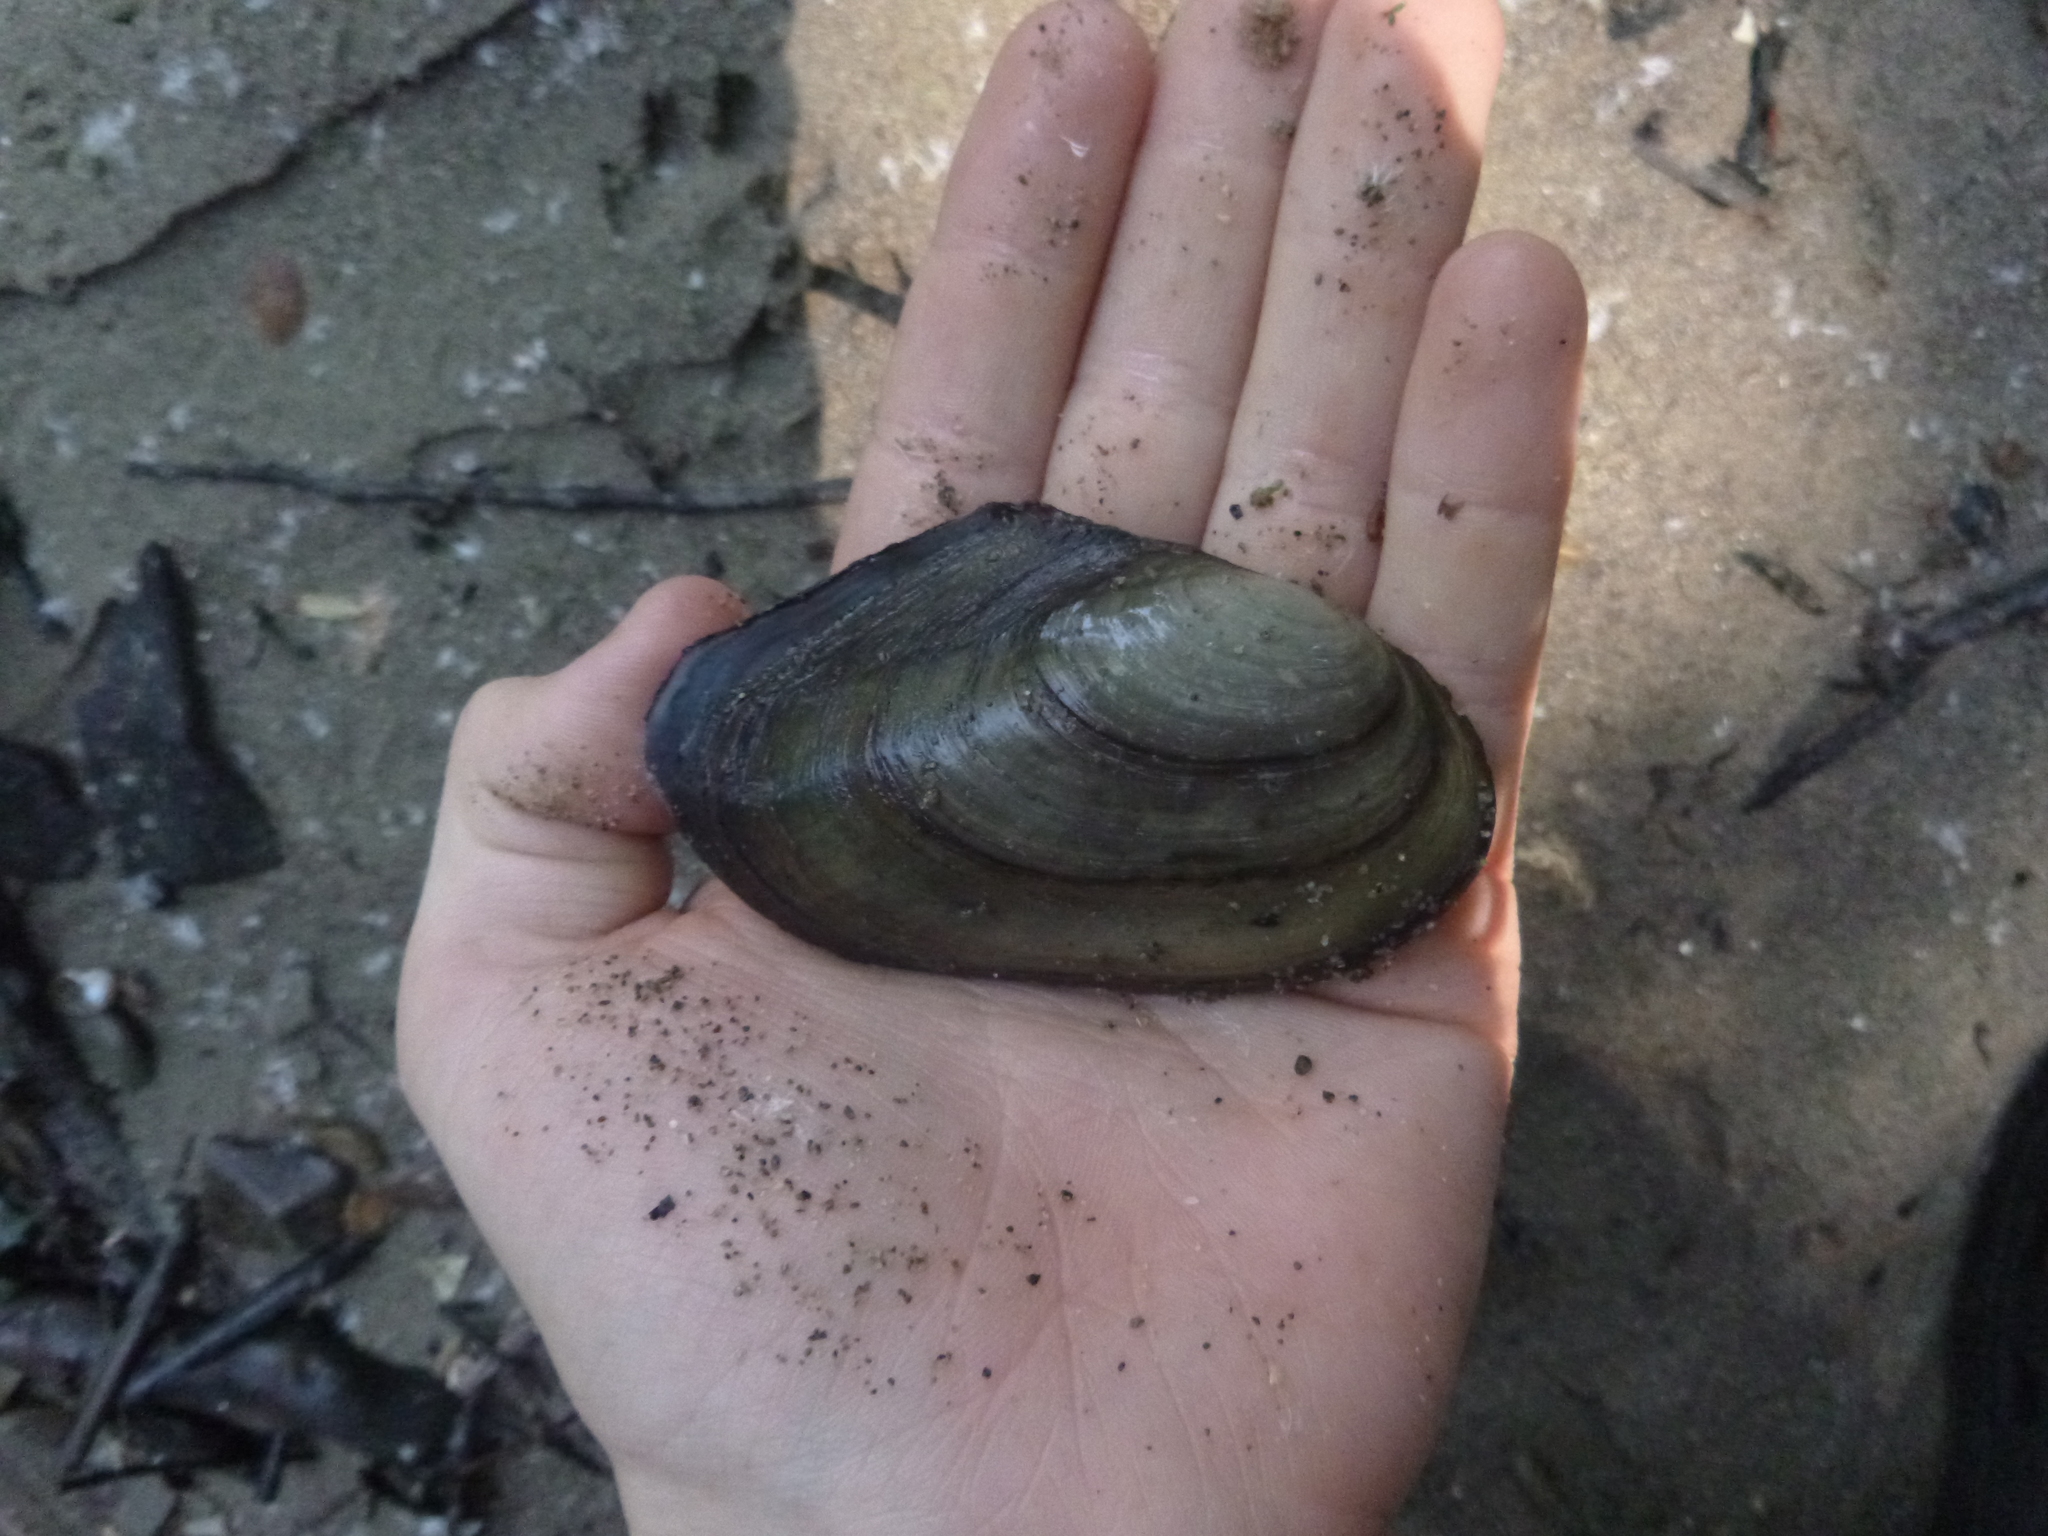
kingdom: Animalia
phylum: Mollusca
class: Bivalvia
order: Unionida
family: Unionidae
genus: Anodonta
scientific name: Anodonta anatina
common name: Duck mussel
